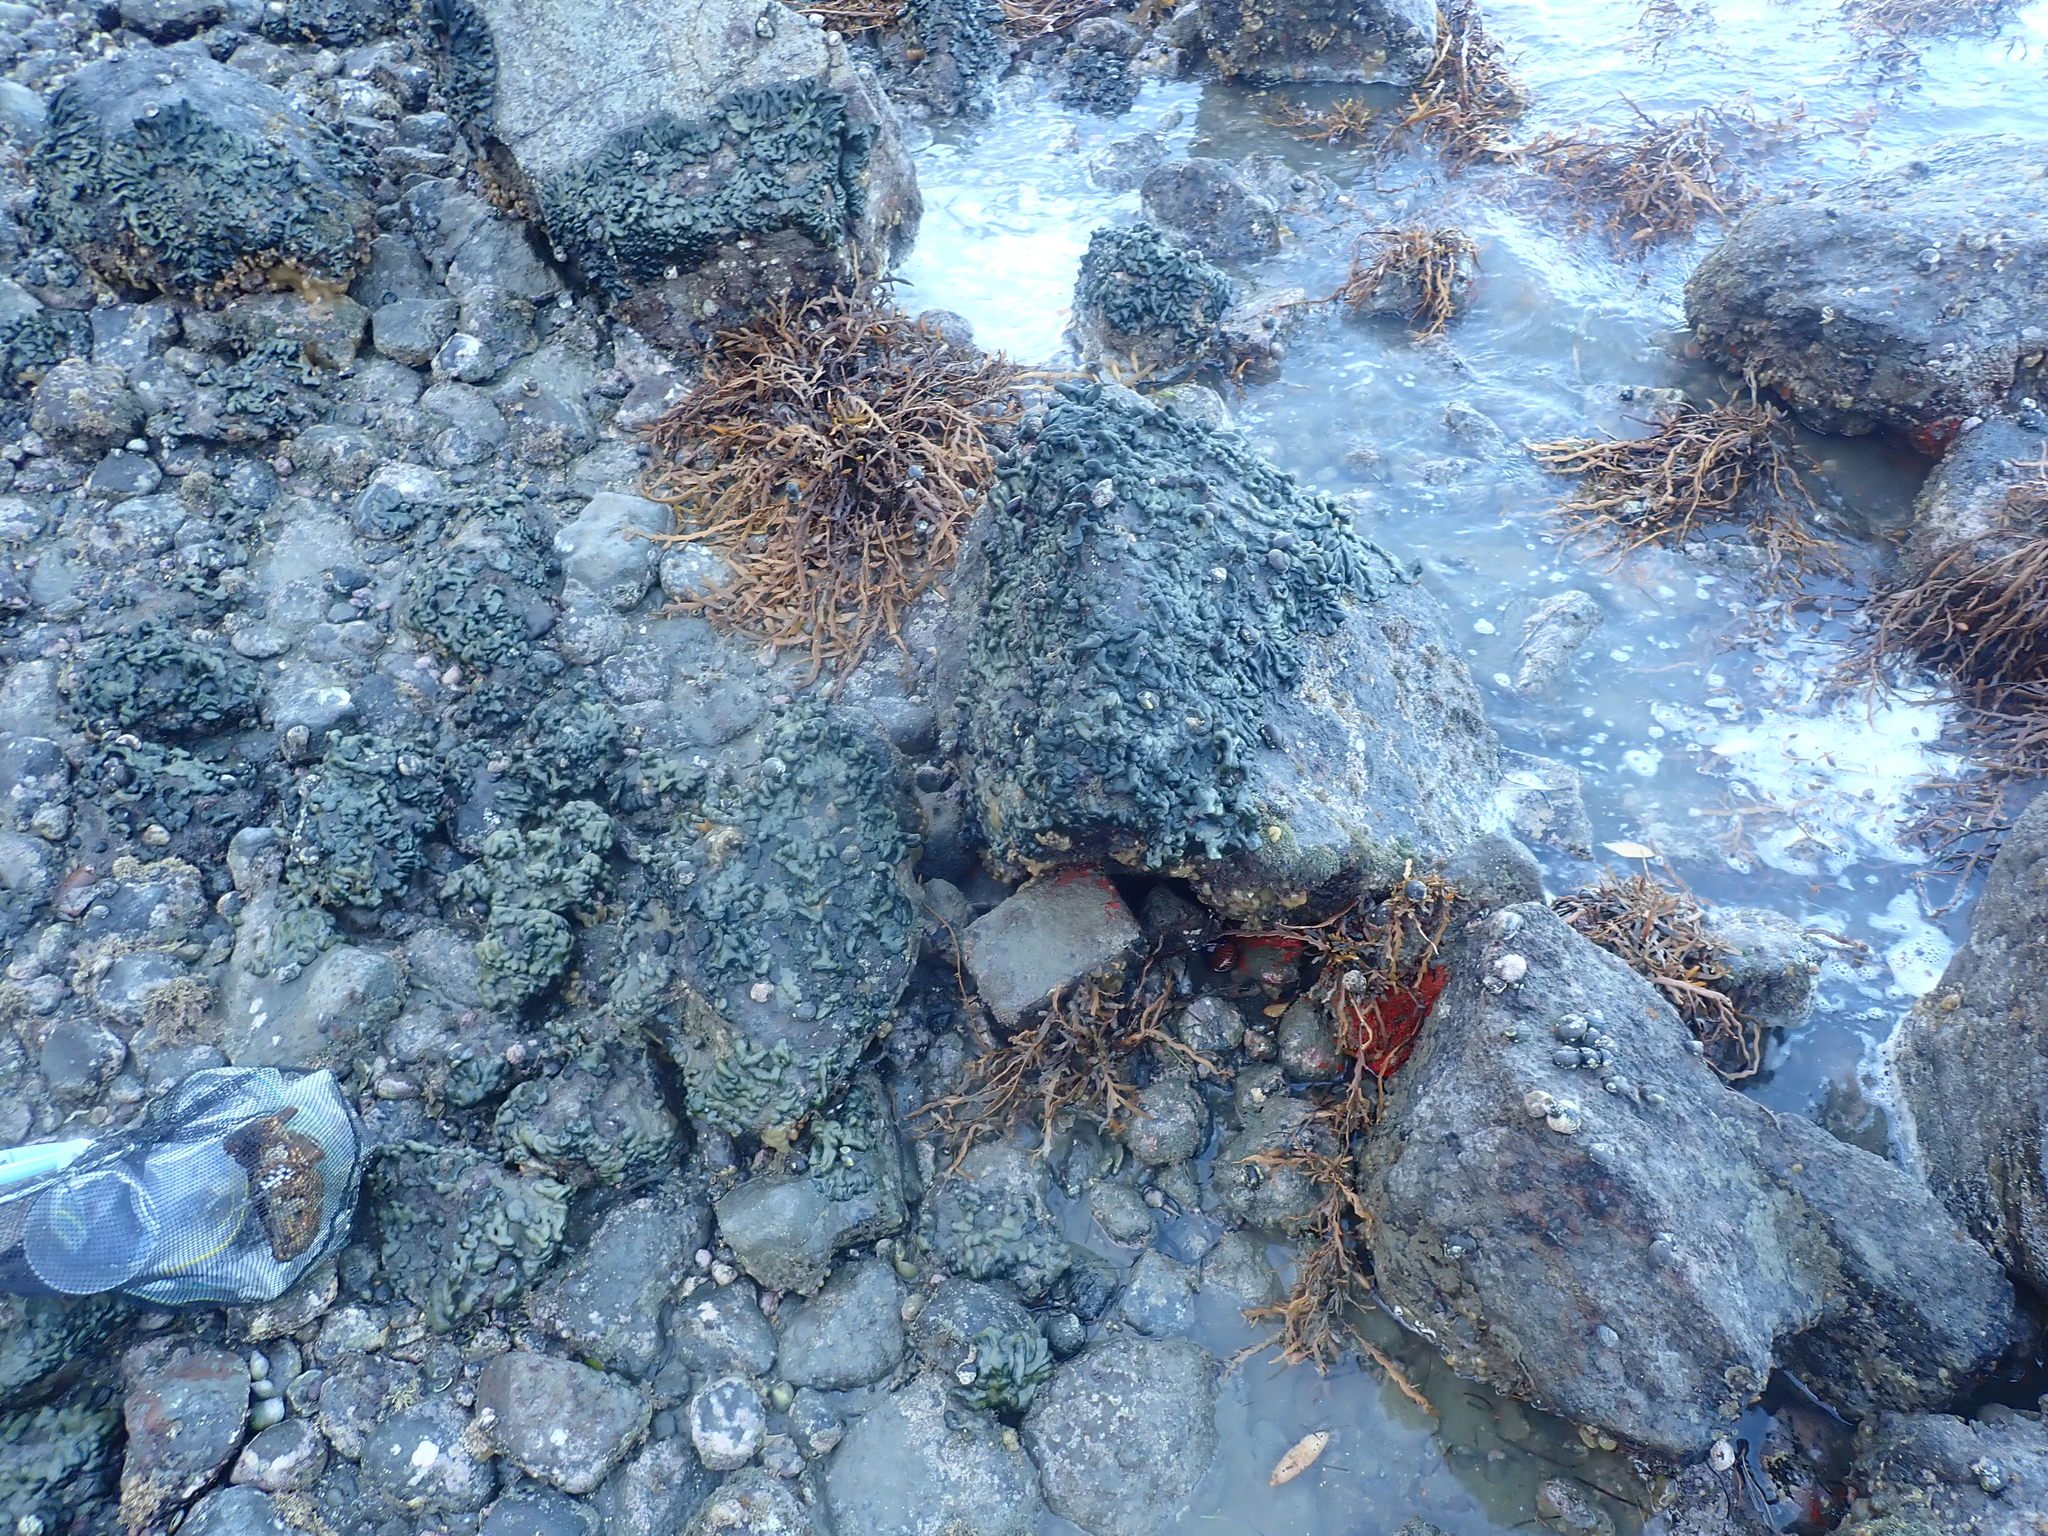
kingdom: Animalia
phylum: Mollusca
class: Gastropoda
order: Trochida
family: Calliostomatidae
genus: Maurea
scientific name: Maurea tigris
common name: Tiger maurea
